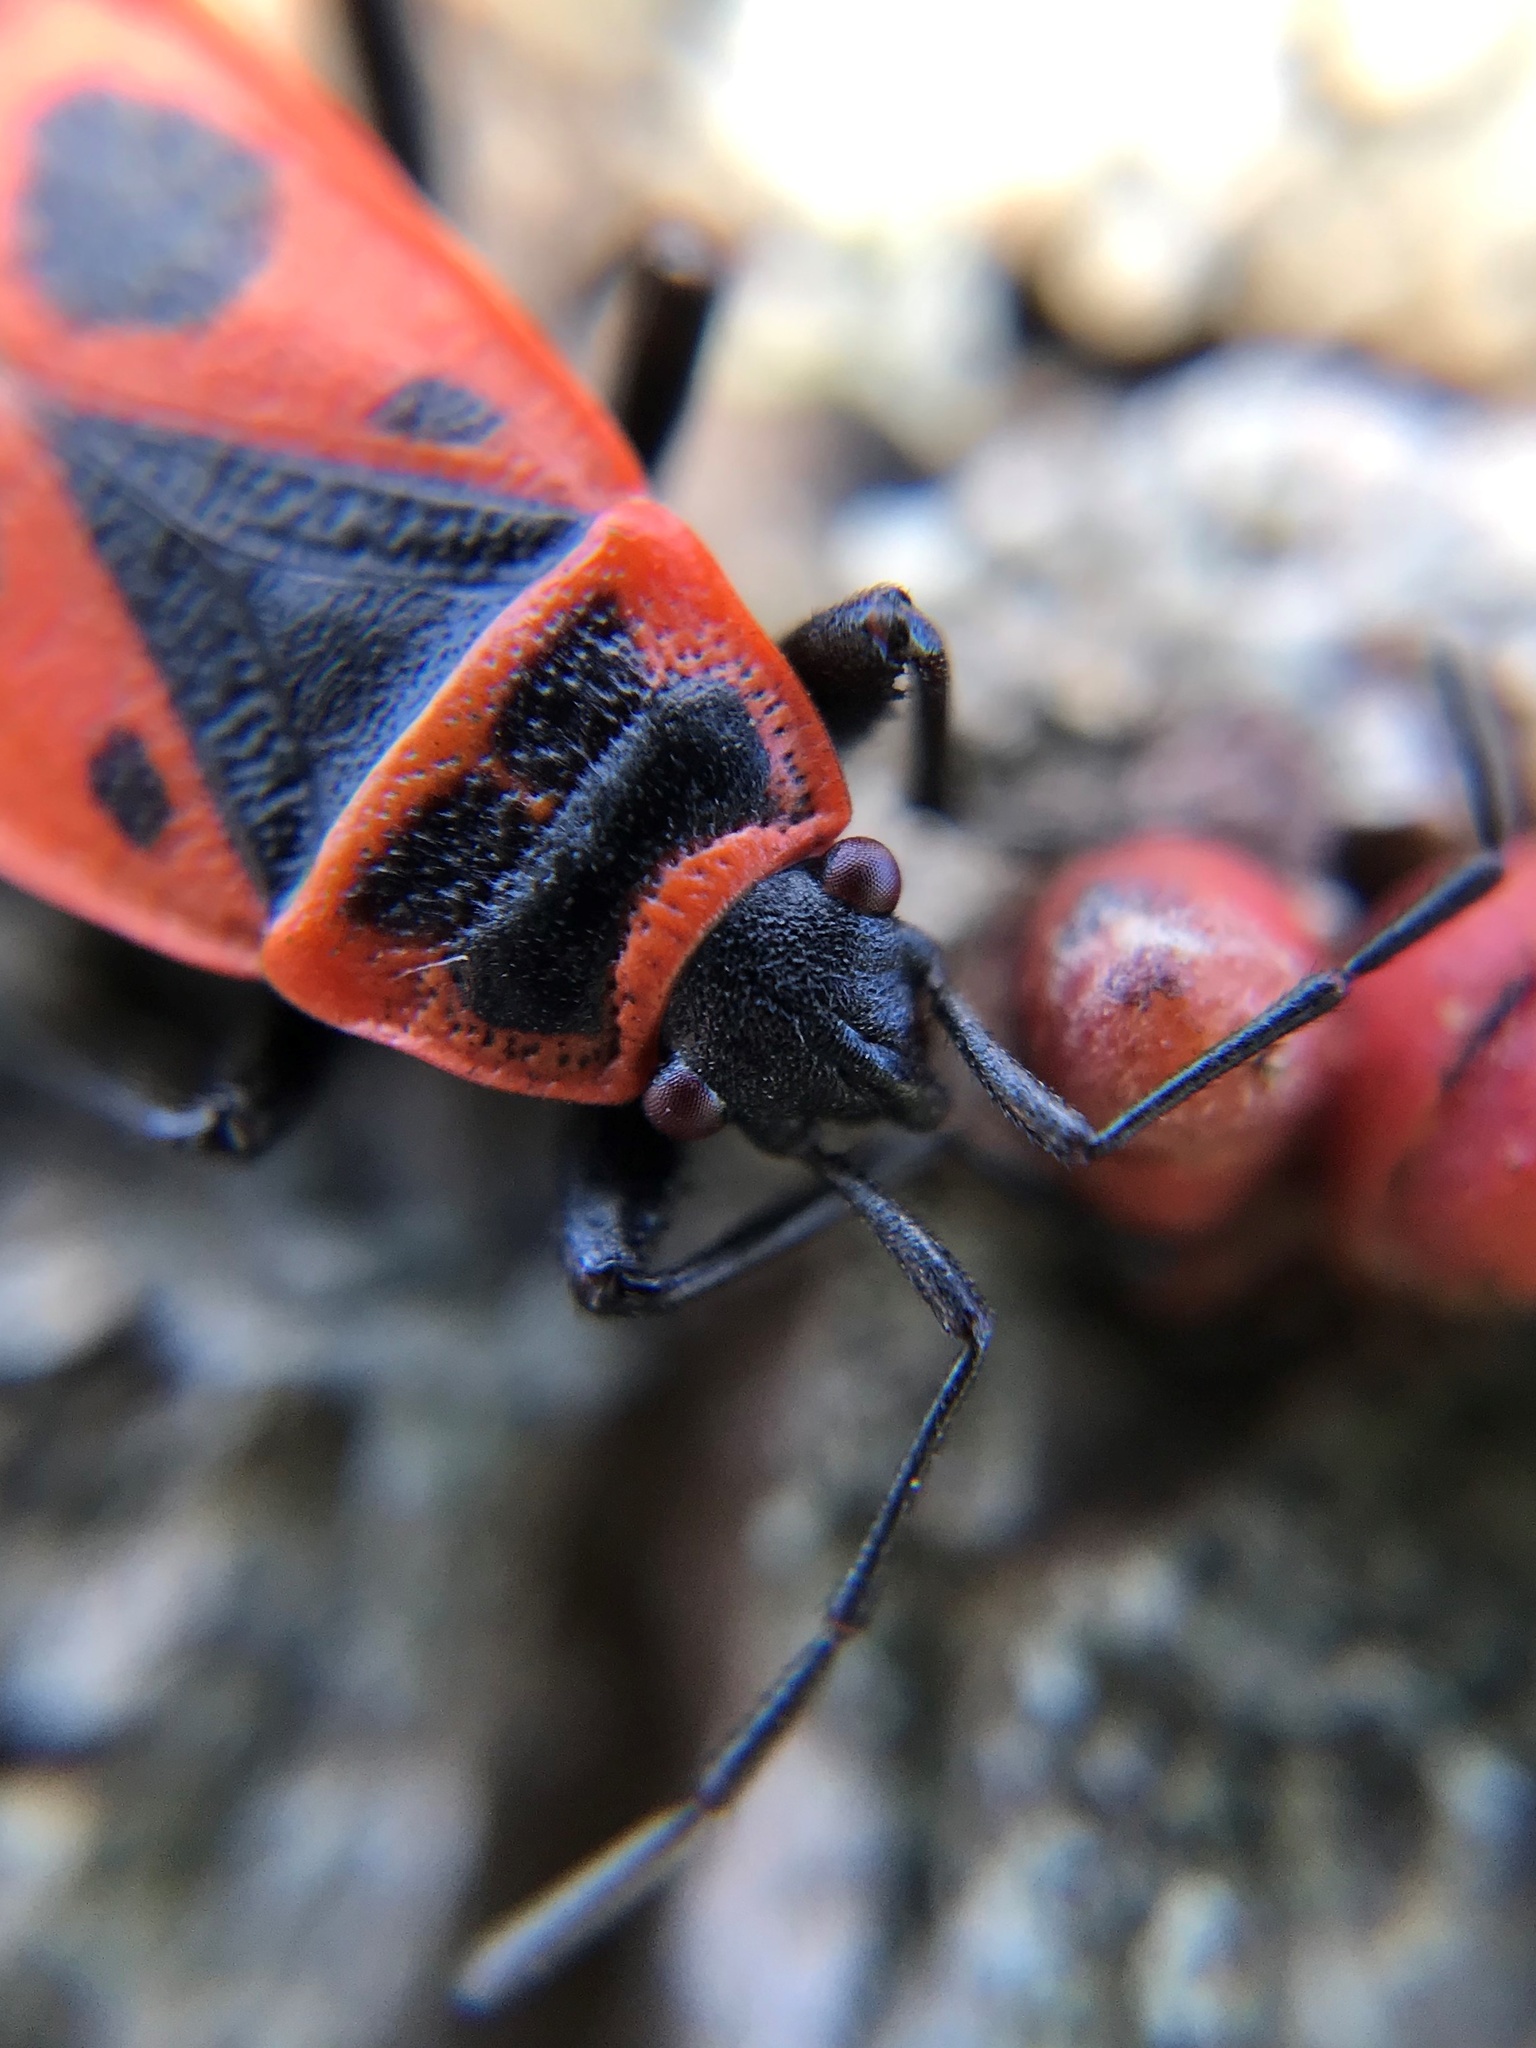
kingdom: Animalia
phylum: Arthropoda
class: Insecta
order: Hemiptera
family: Pyrrhocoridae
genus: Pyrrhocoris
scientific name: Pyrrhocoris apterus
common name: Firebug
